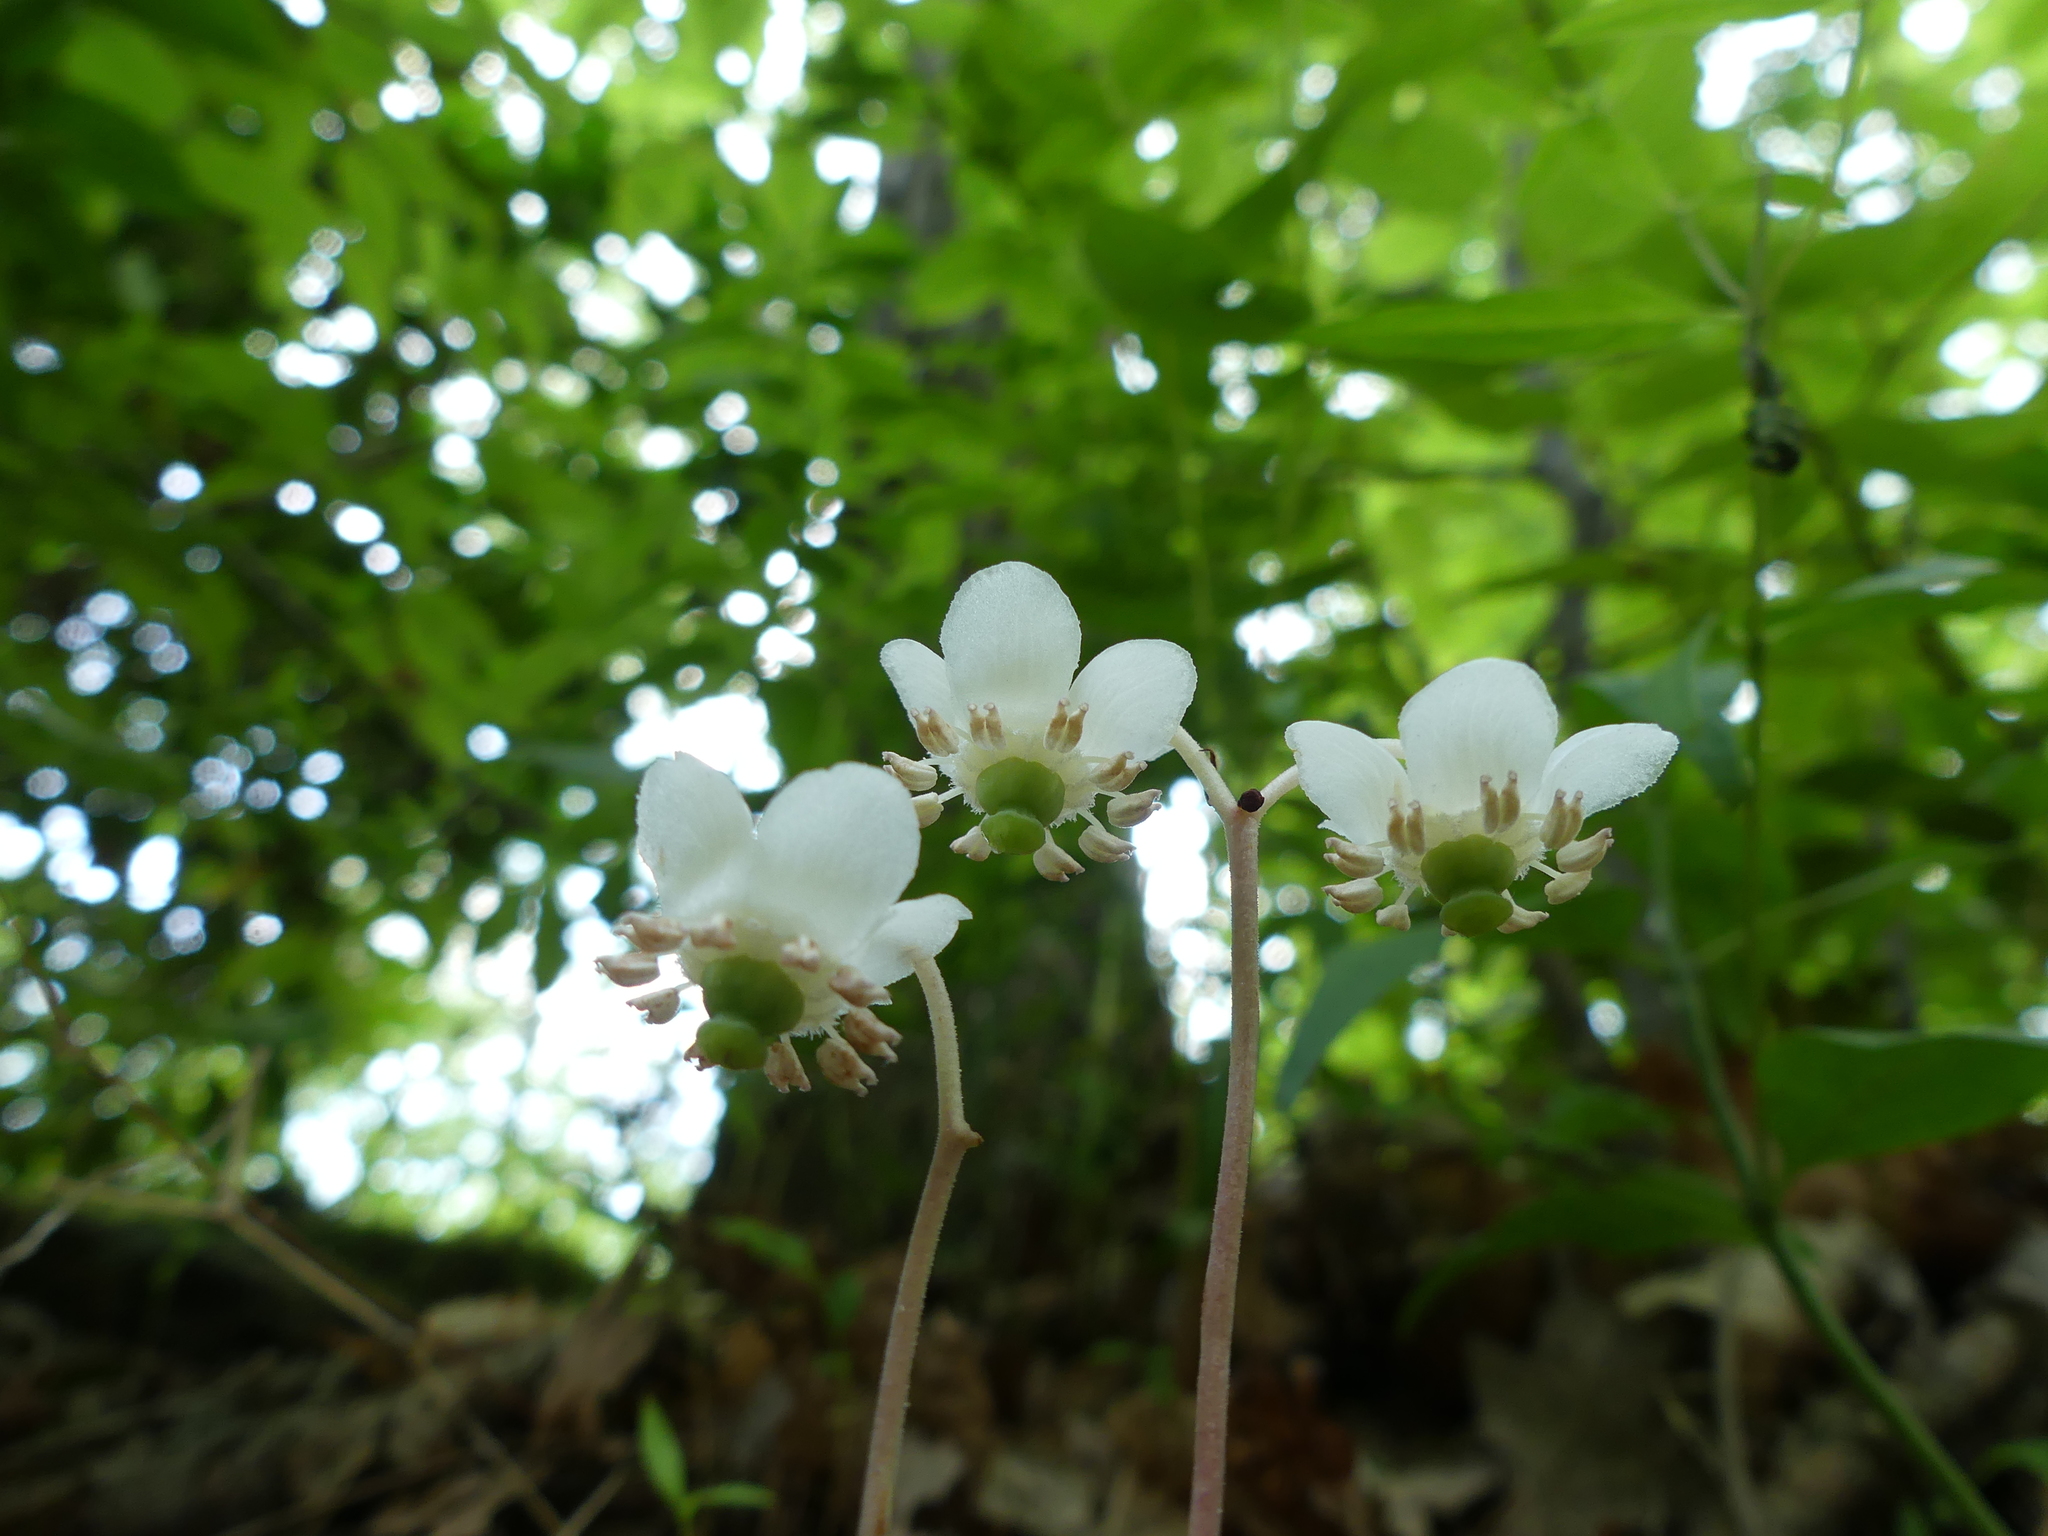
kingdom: Plantae
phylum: Tracheophyta
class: Magnoliopsida
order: Ericales
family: Ericaceae
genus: Chimaphila
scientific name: Chimaphila maculata
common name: Spotted pipsissewa
